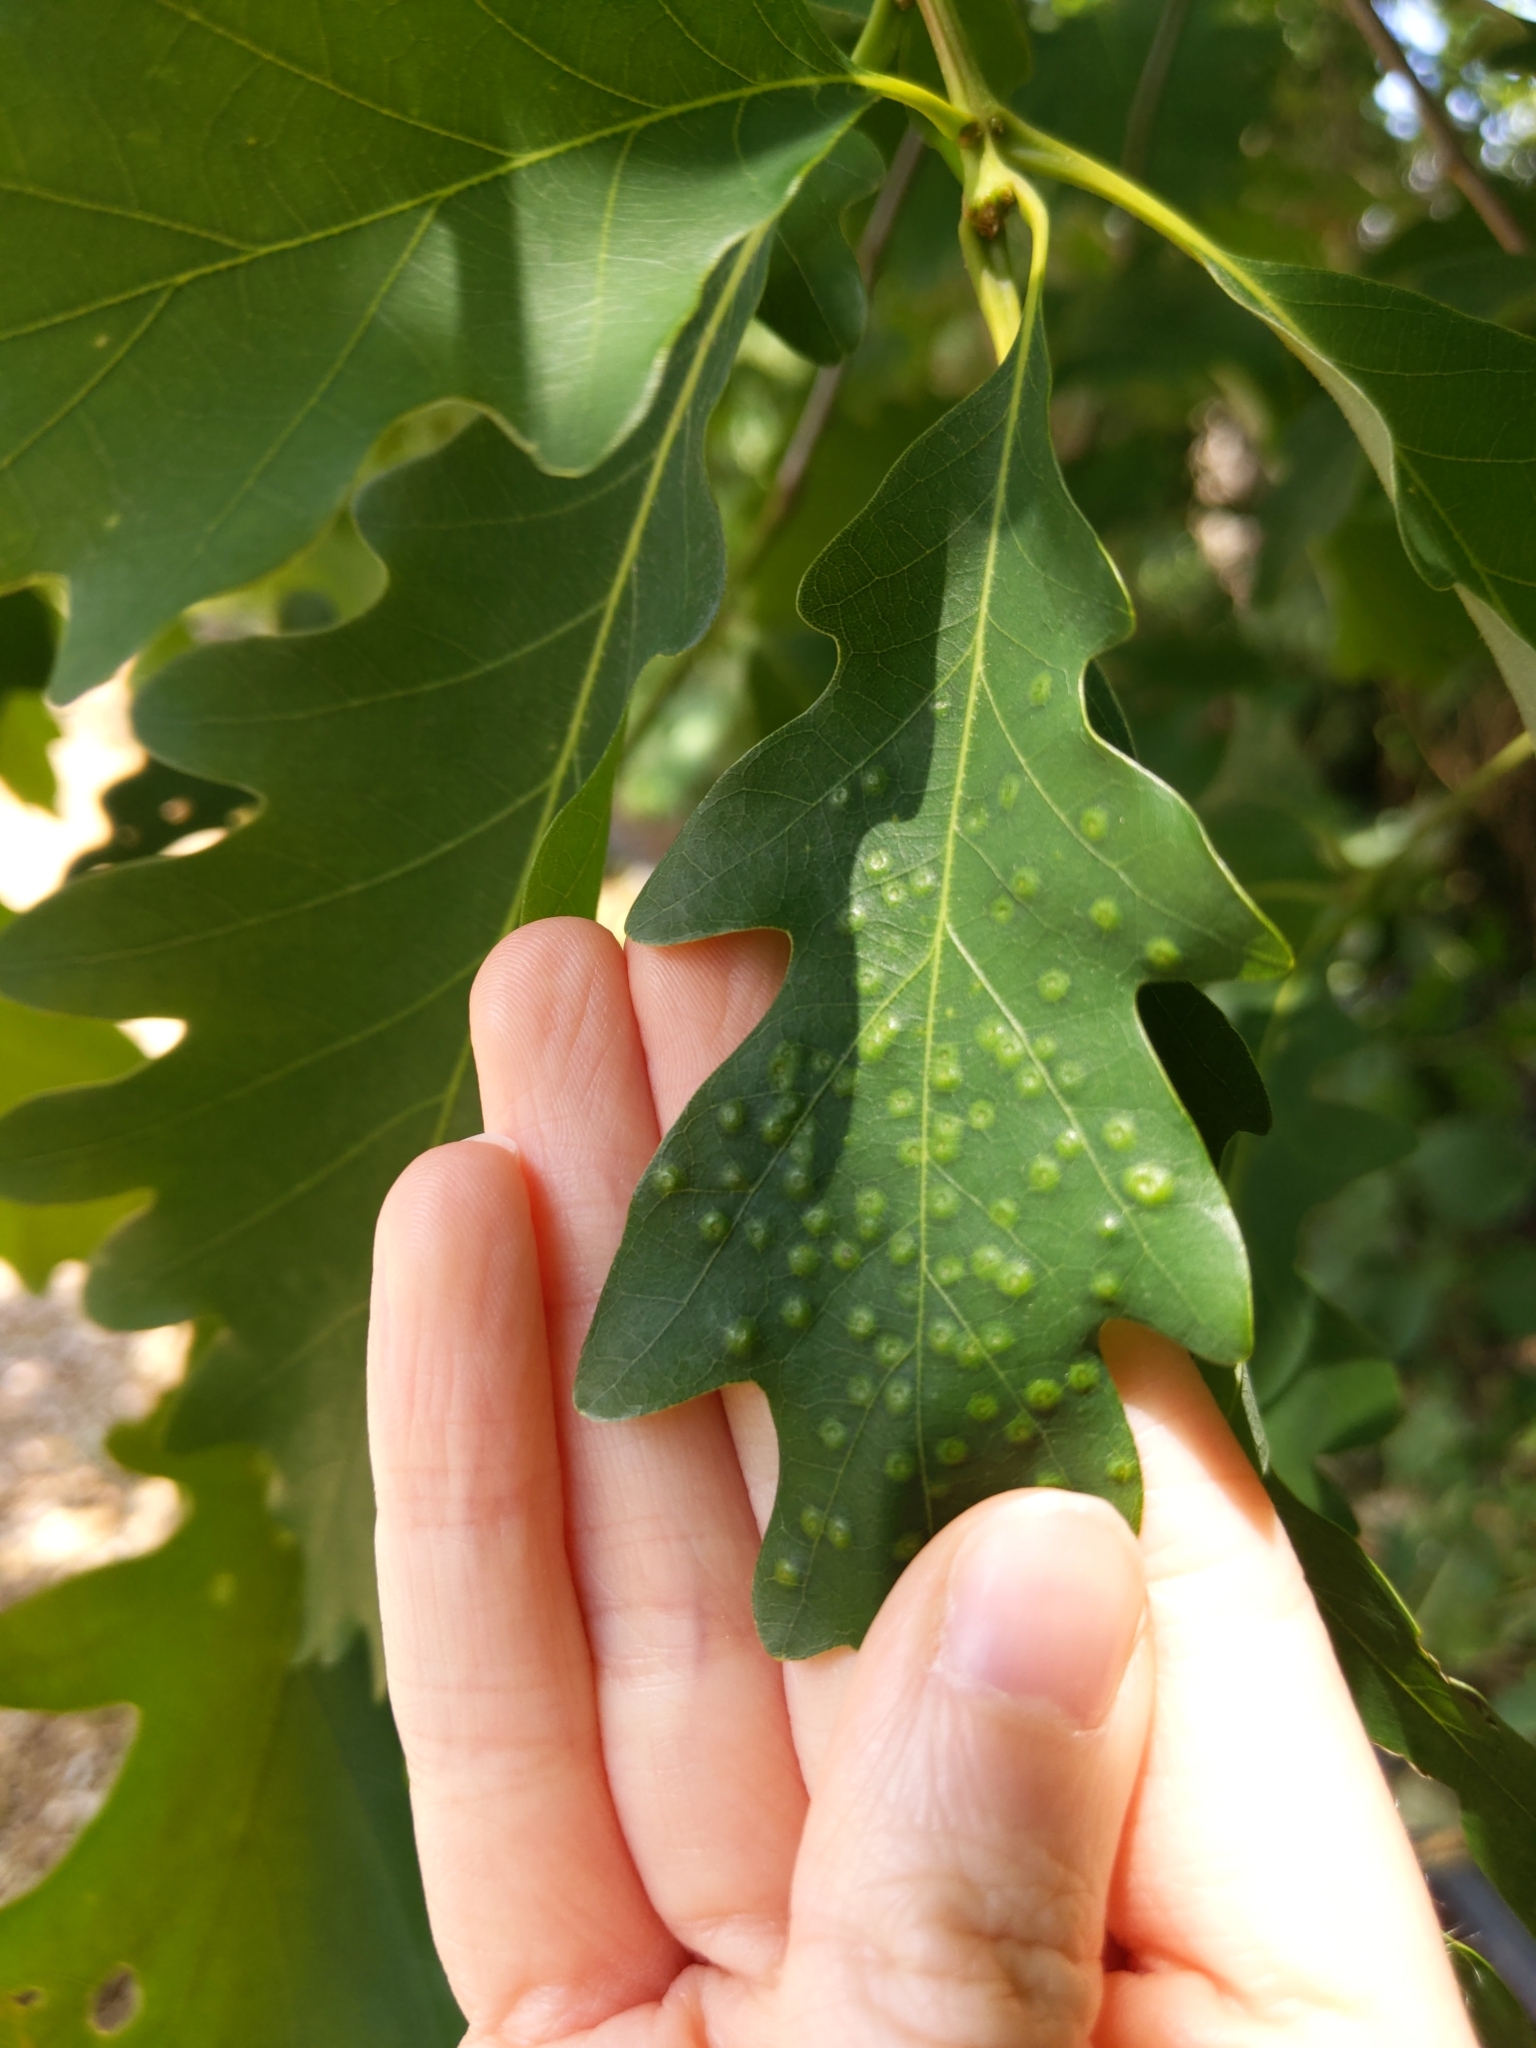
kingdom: Animalia
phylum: Arthropoda
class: Insecta
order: Hymenoptera
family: Cynipidae
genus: Neuroterus
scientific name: Neuroterus
